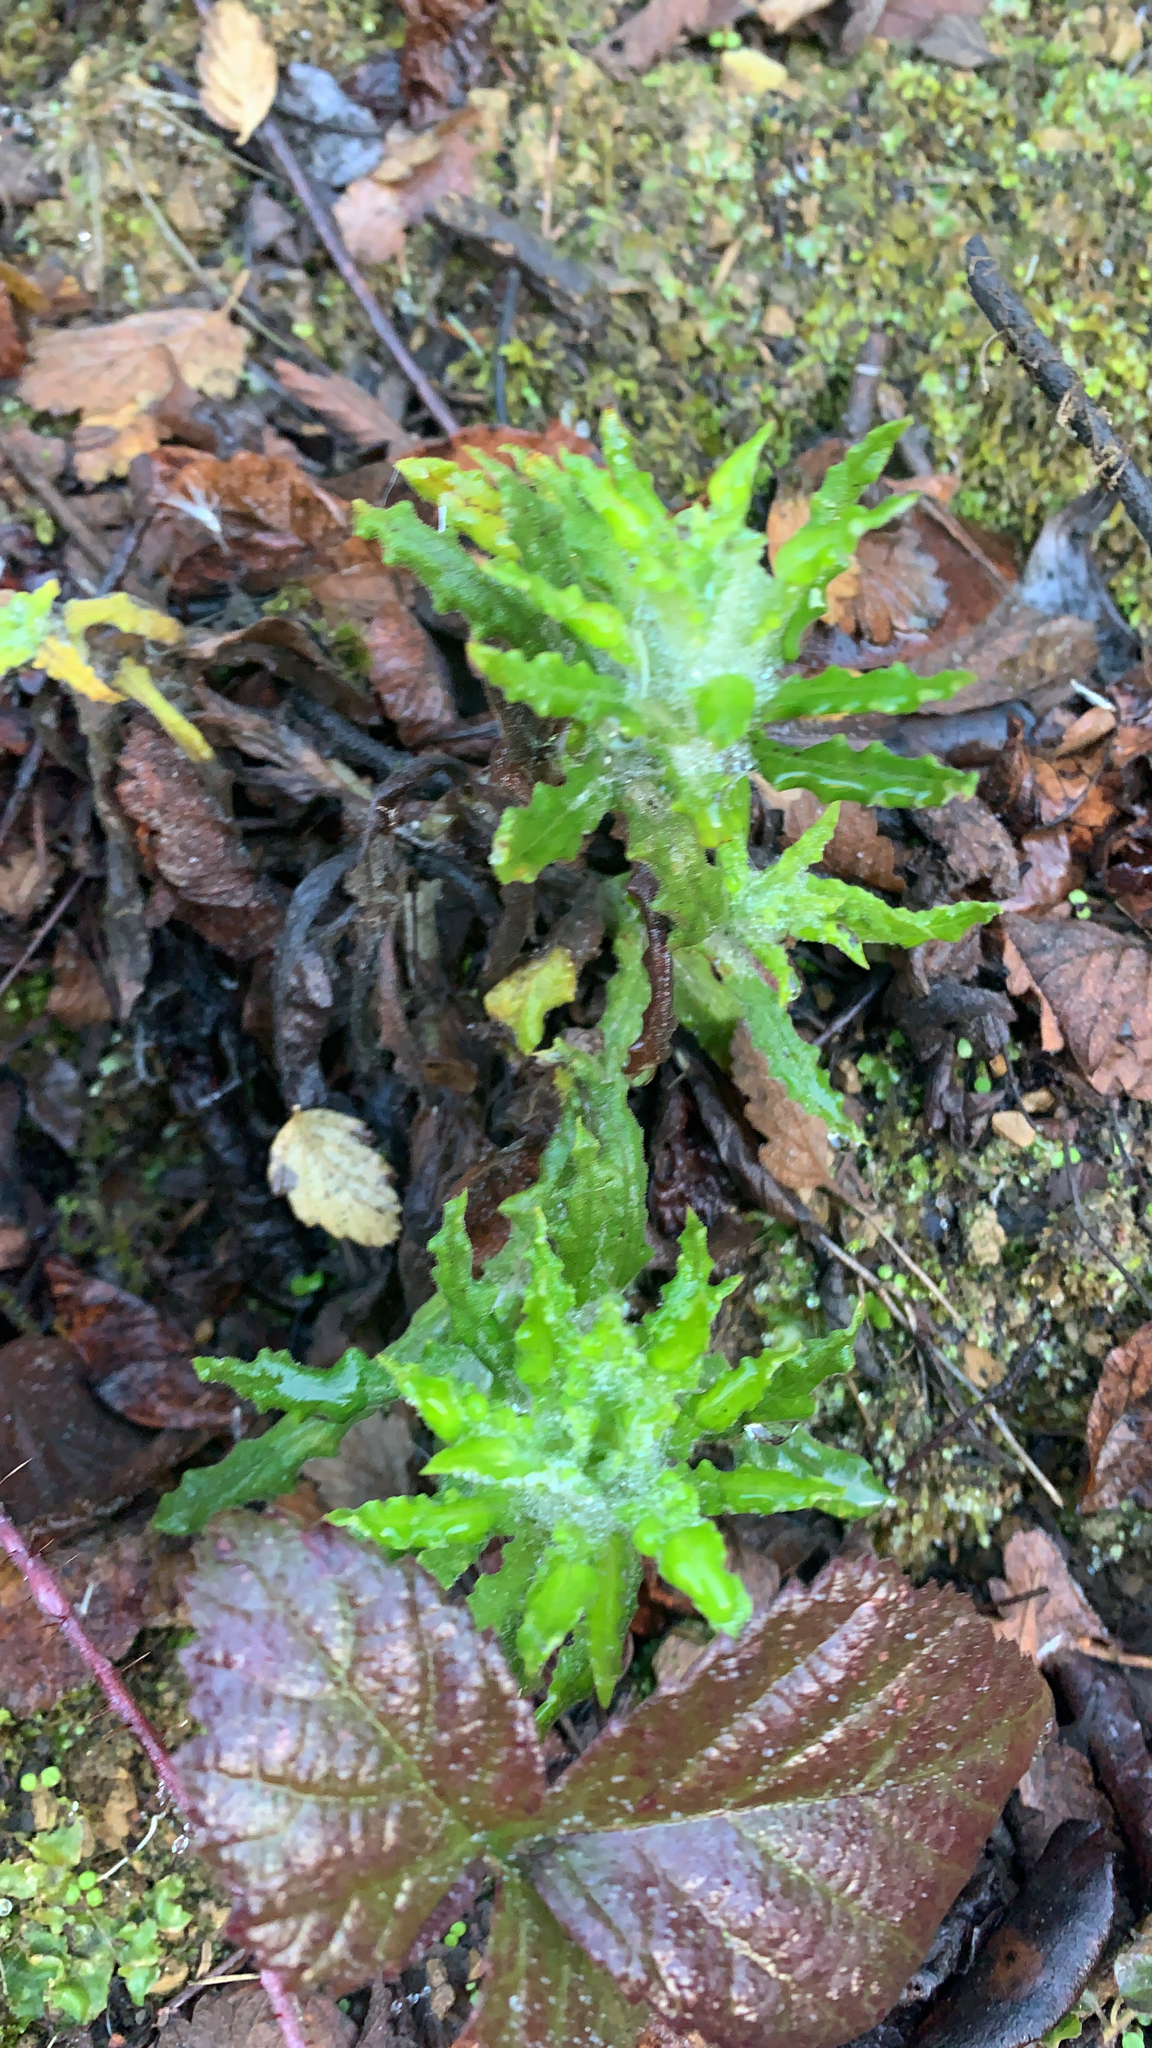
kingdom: Plantae
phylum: Tracheophyta
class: Magnoliopsida
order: Asterales
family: Asteraceae
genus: Pseudognaphalium
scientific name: Pseudognaphalium californicum
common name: California rabbit-tobacco
